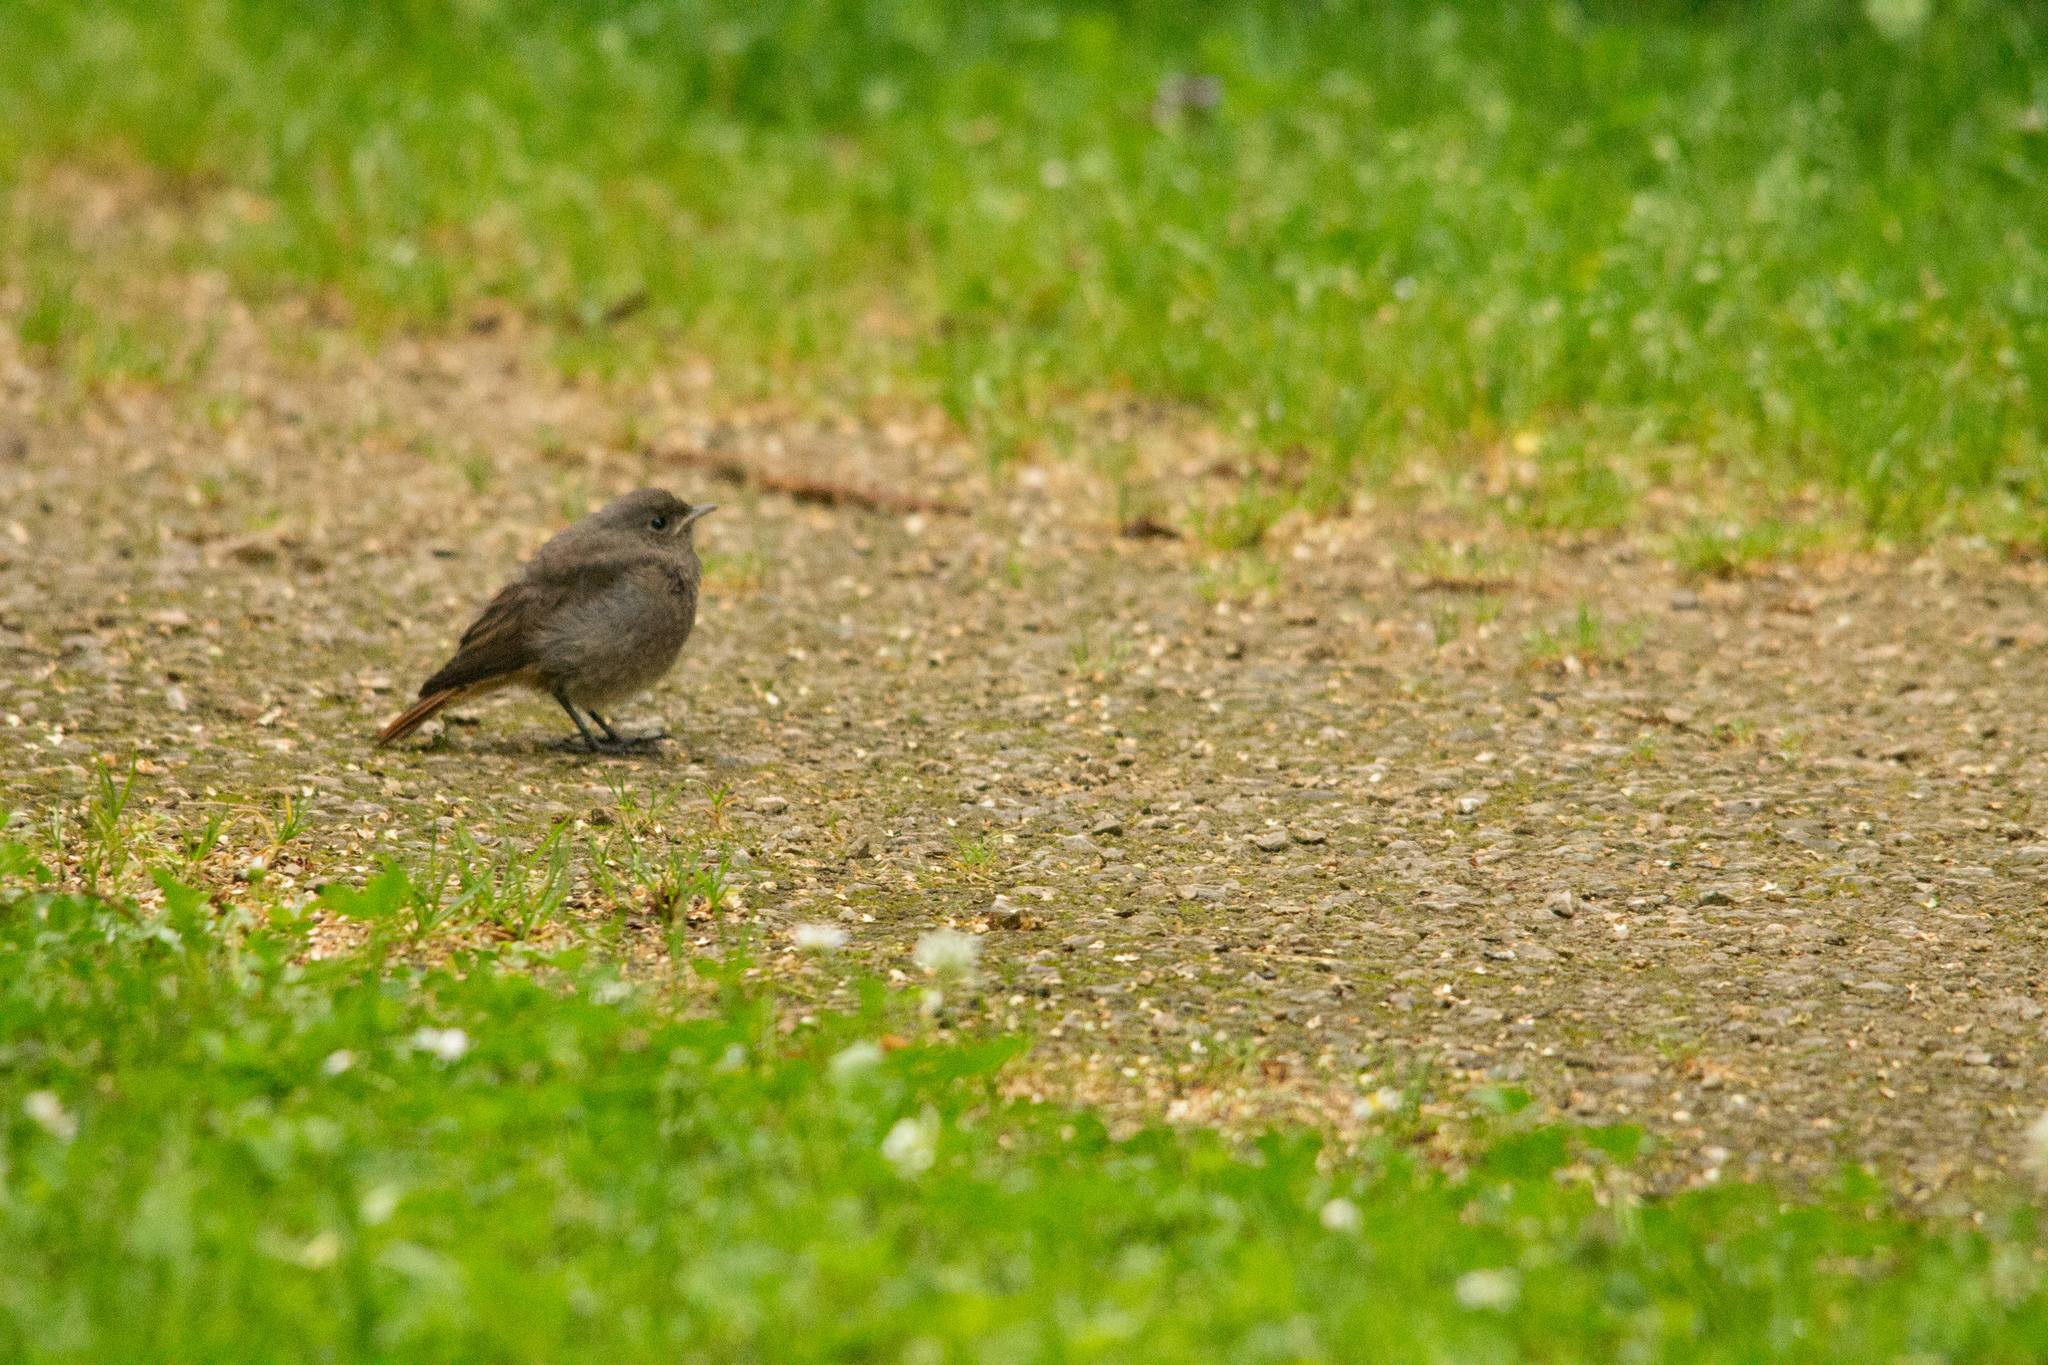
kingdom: Animalia
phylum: Chordata
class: Aves
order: Passeriformes
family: Muscicapidae
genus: Phoenicurus
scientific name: Phoenicurus ochruros
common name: Black redstart
